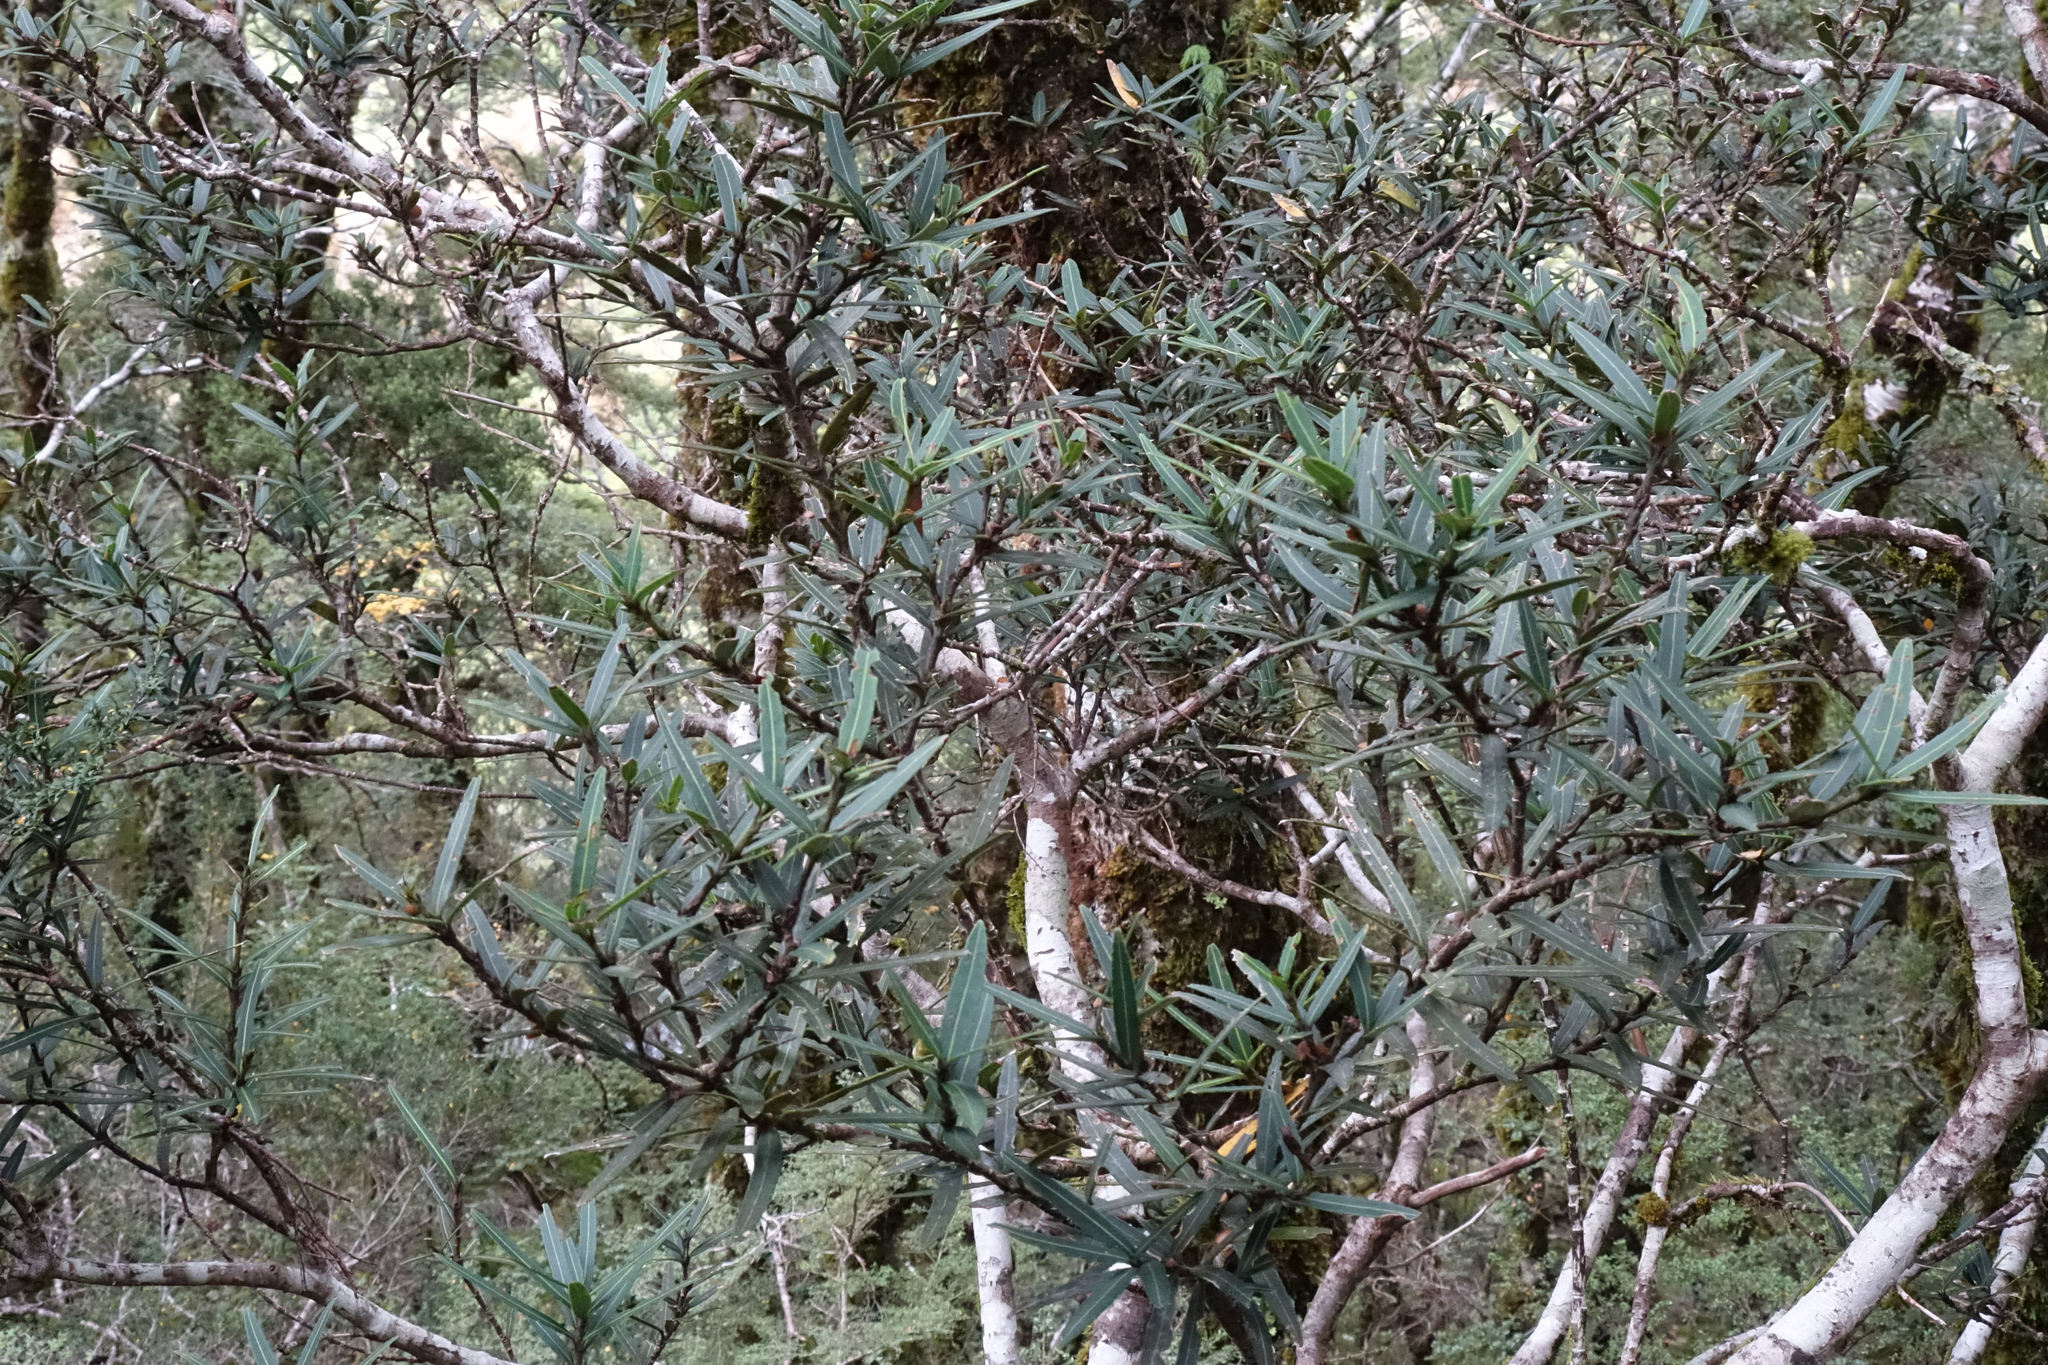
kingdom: Plantae
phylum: Tracheophyta
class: Magnoliopsida
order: Apiales
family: Araliaceae
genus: Pseudopanax
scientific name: Pseudopanax linearis
